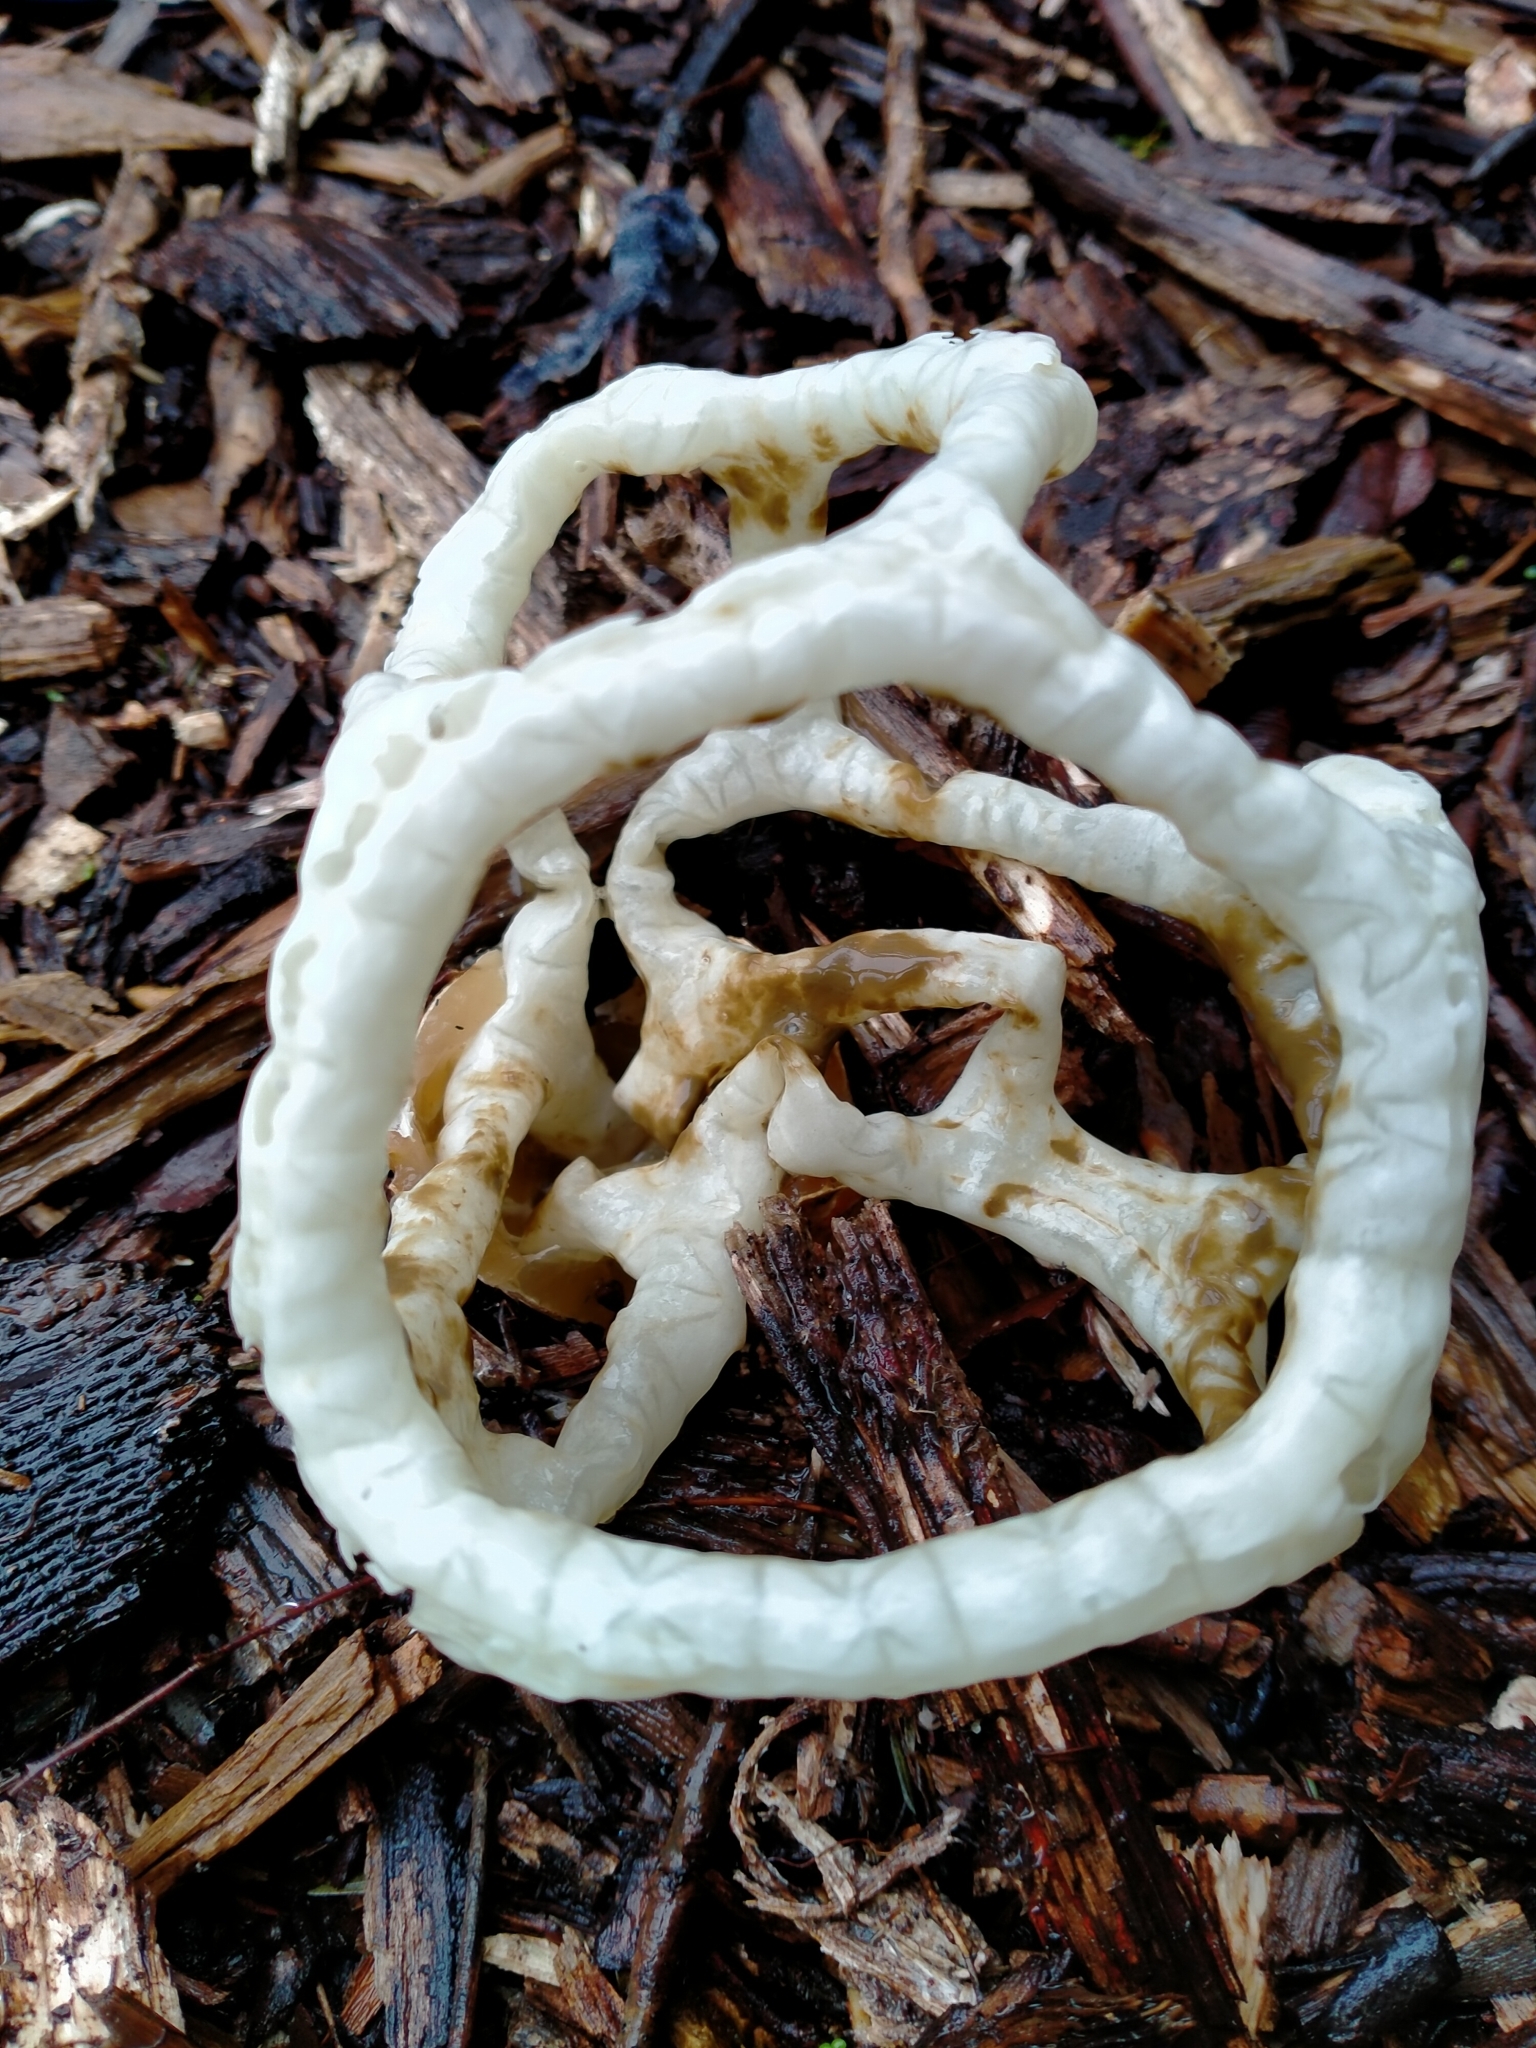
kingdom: Fungi
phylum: Basidiomycota
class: Agaricomycetes
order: Phallales
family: Phallaceae
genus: Ileodictyon
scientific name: Ileodictyon cibarium
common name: Basket fungus
